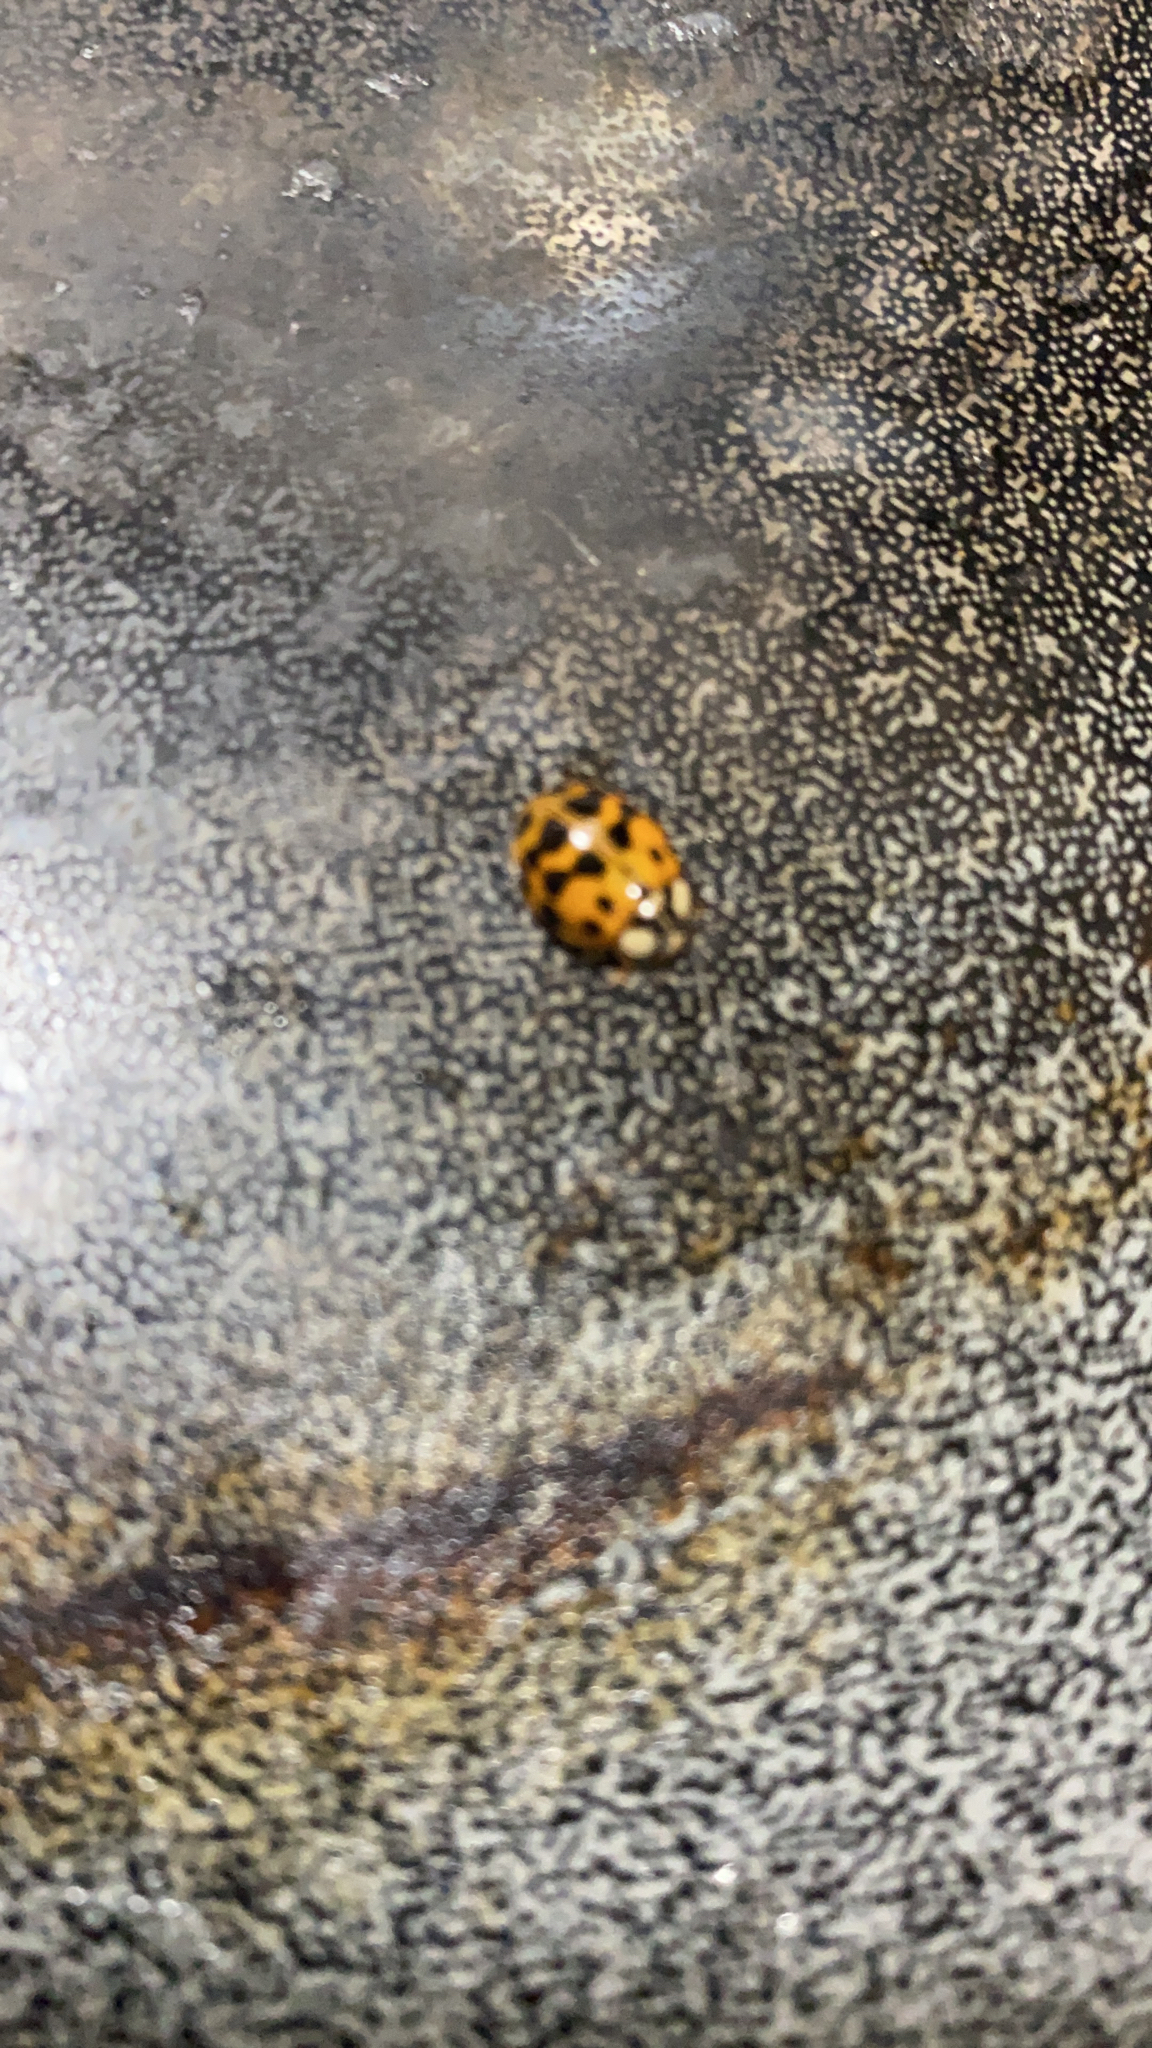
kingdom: Animalia
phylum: Arthropoda
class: Insecta
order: Coleoptera
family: Coccinellidae
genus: Harmonia
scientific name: Harmonia axyridis
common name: Harlequin ladybird
